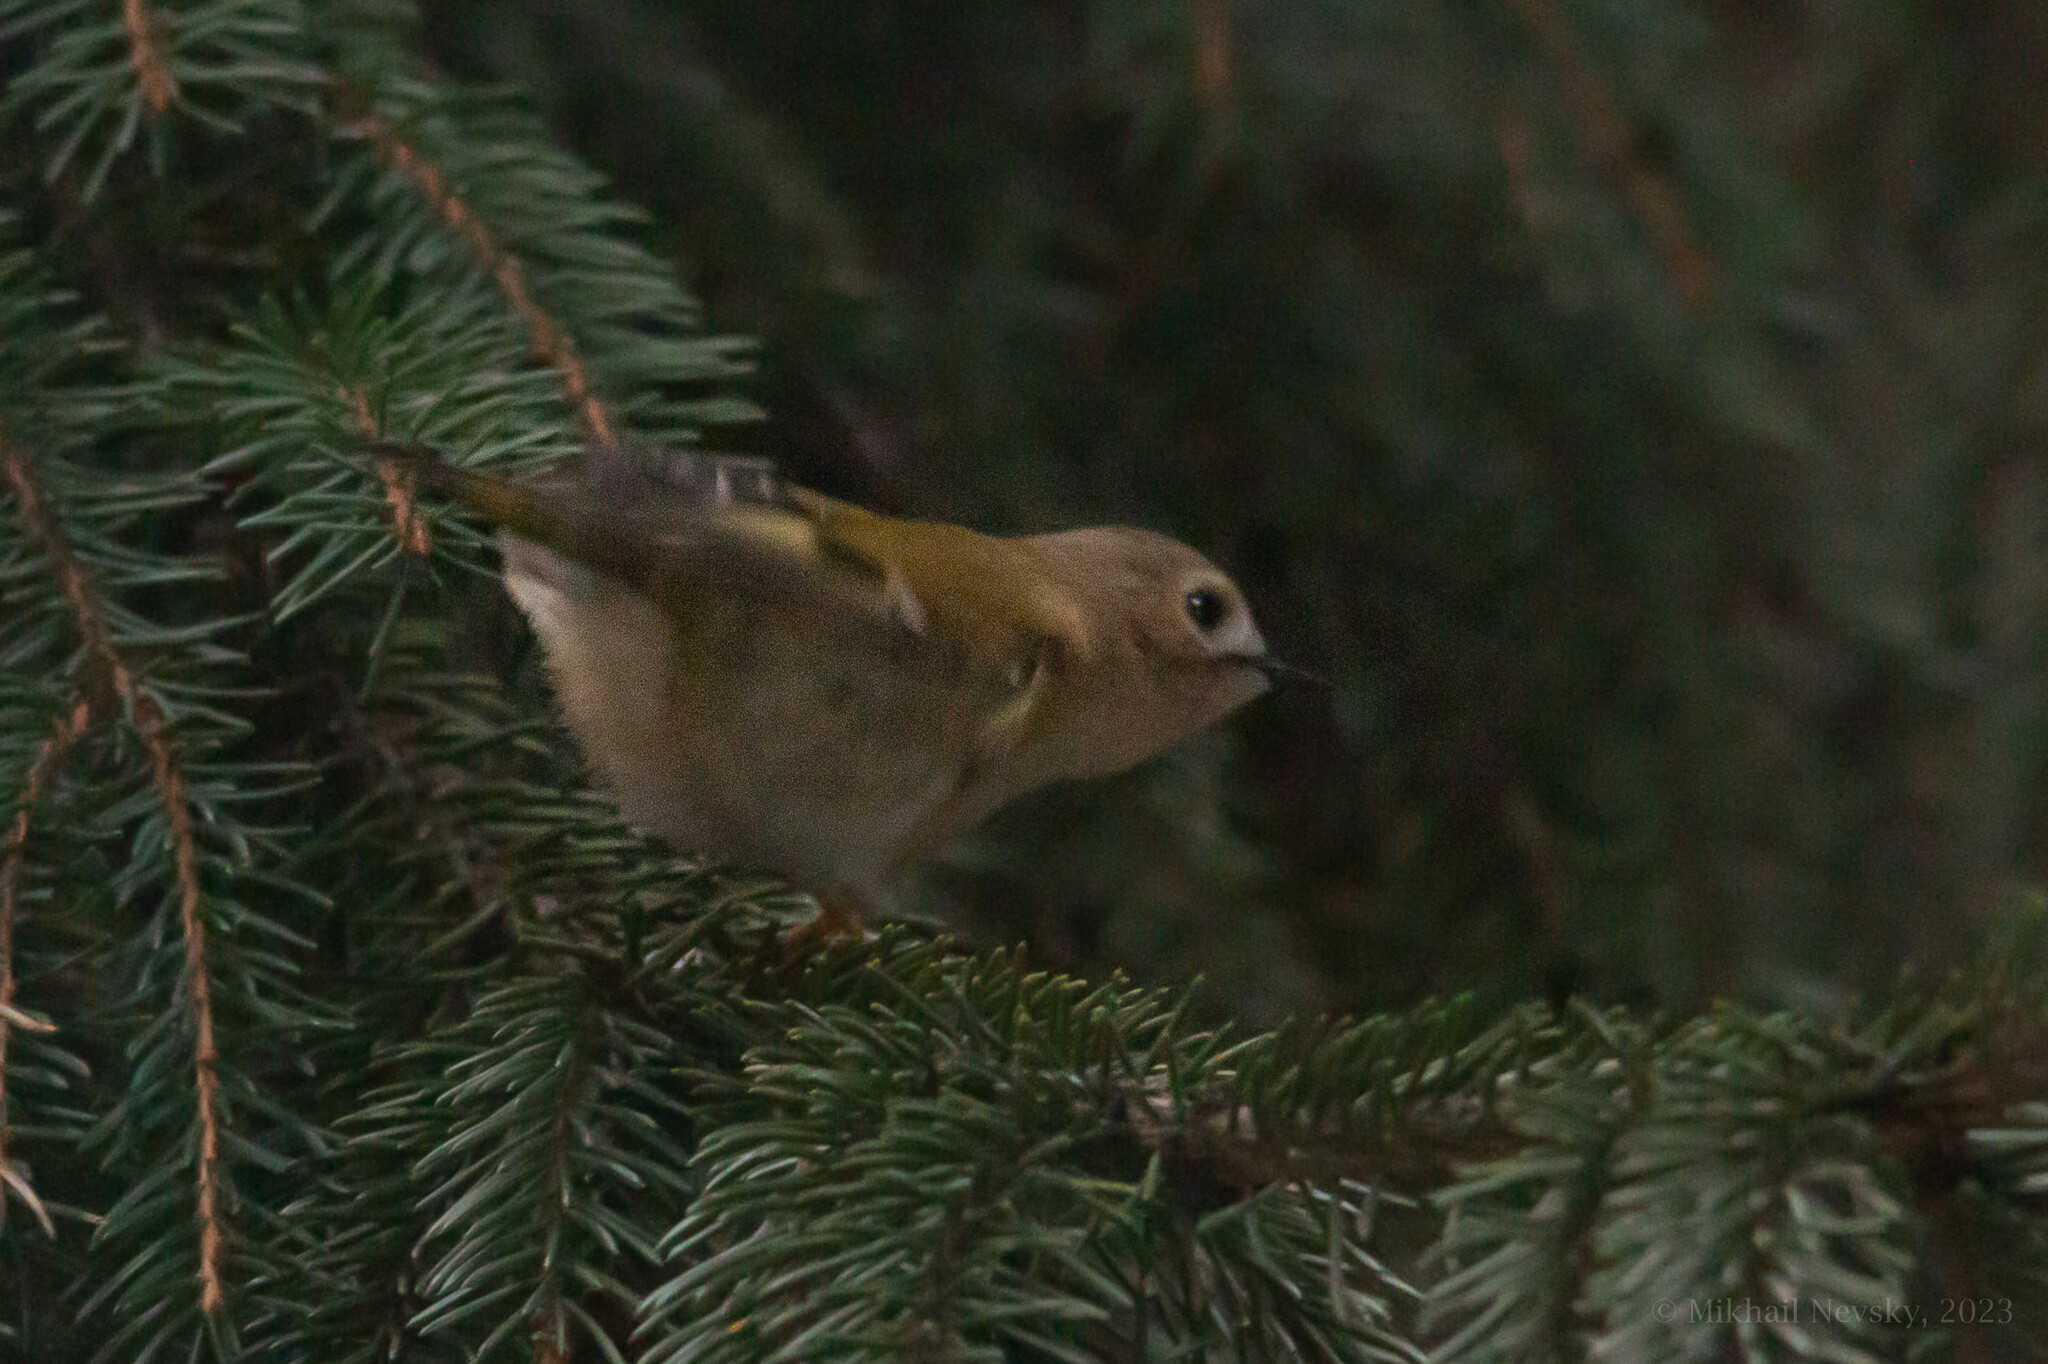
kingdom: Animalia
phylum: Chordata
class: Aves
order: Passeriformes
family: Regulidae
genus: Regulus
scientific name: Regulus regulus
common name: Goldcrest
